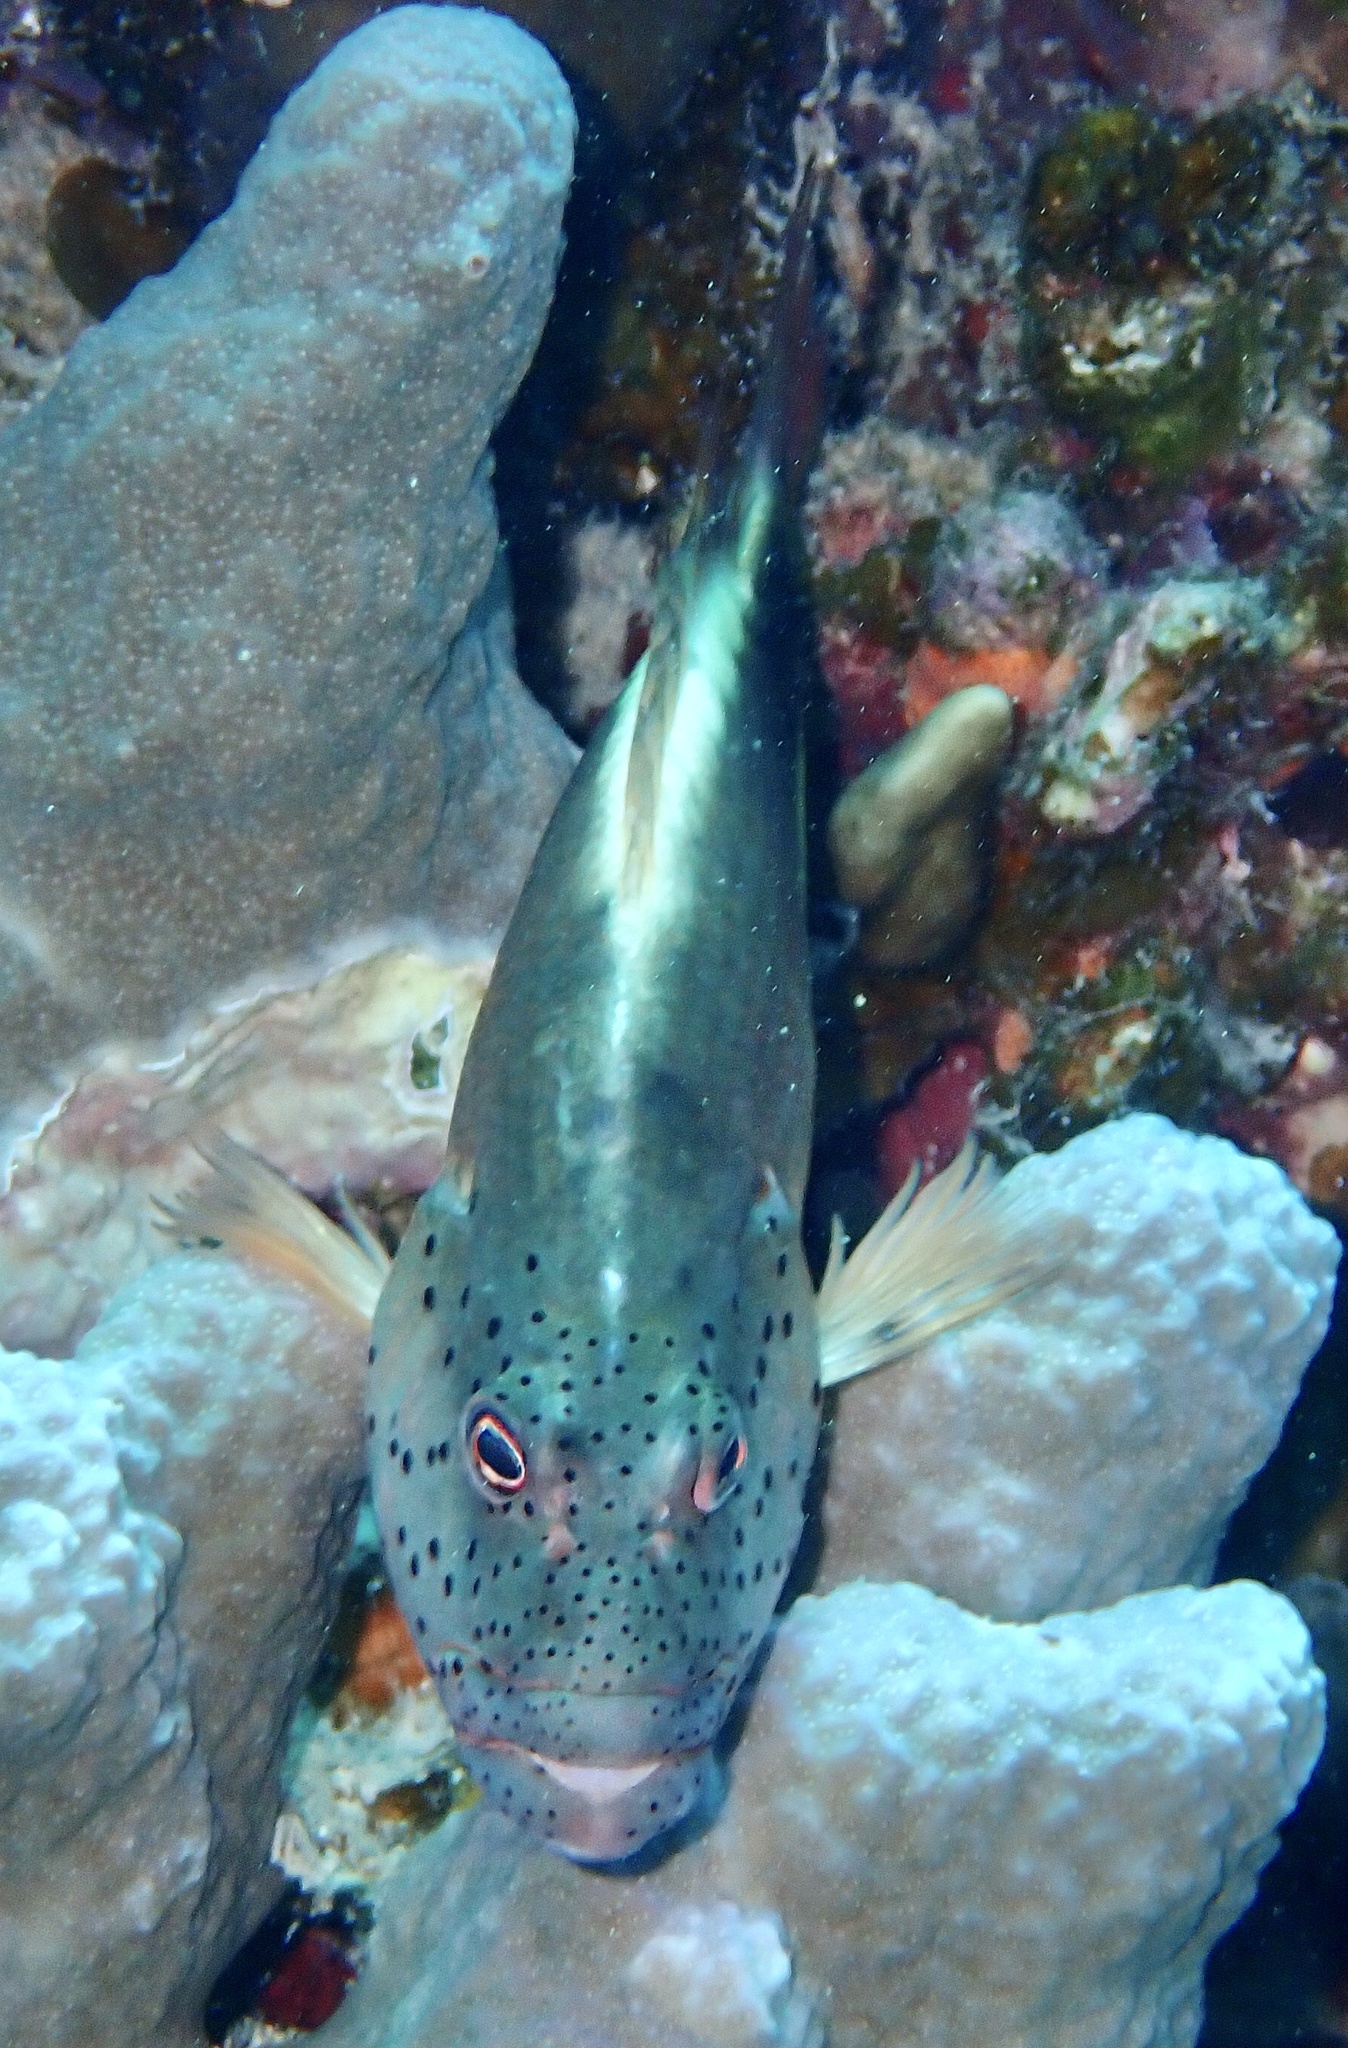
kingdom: Animalia
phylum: Chordata
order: Perciformes
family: Cirrhitidae
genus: Paracirrhites
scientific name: Paracirrhites forsteri
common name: Freckled hawkfish
